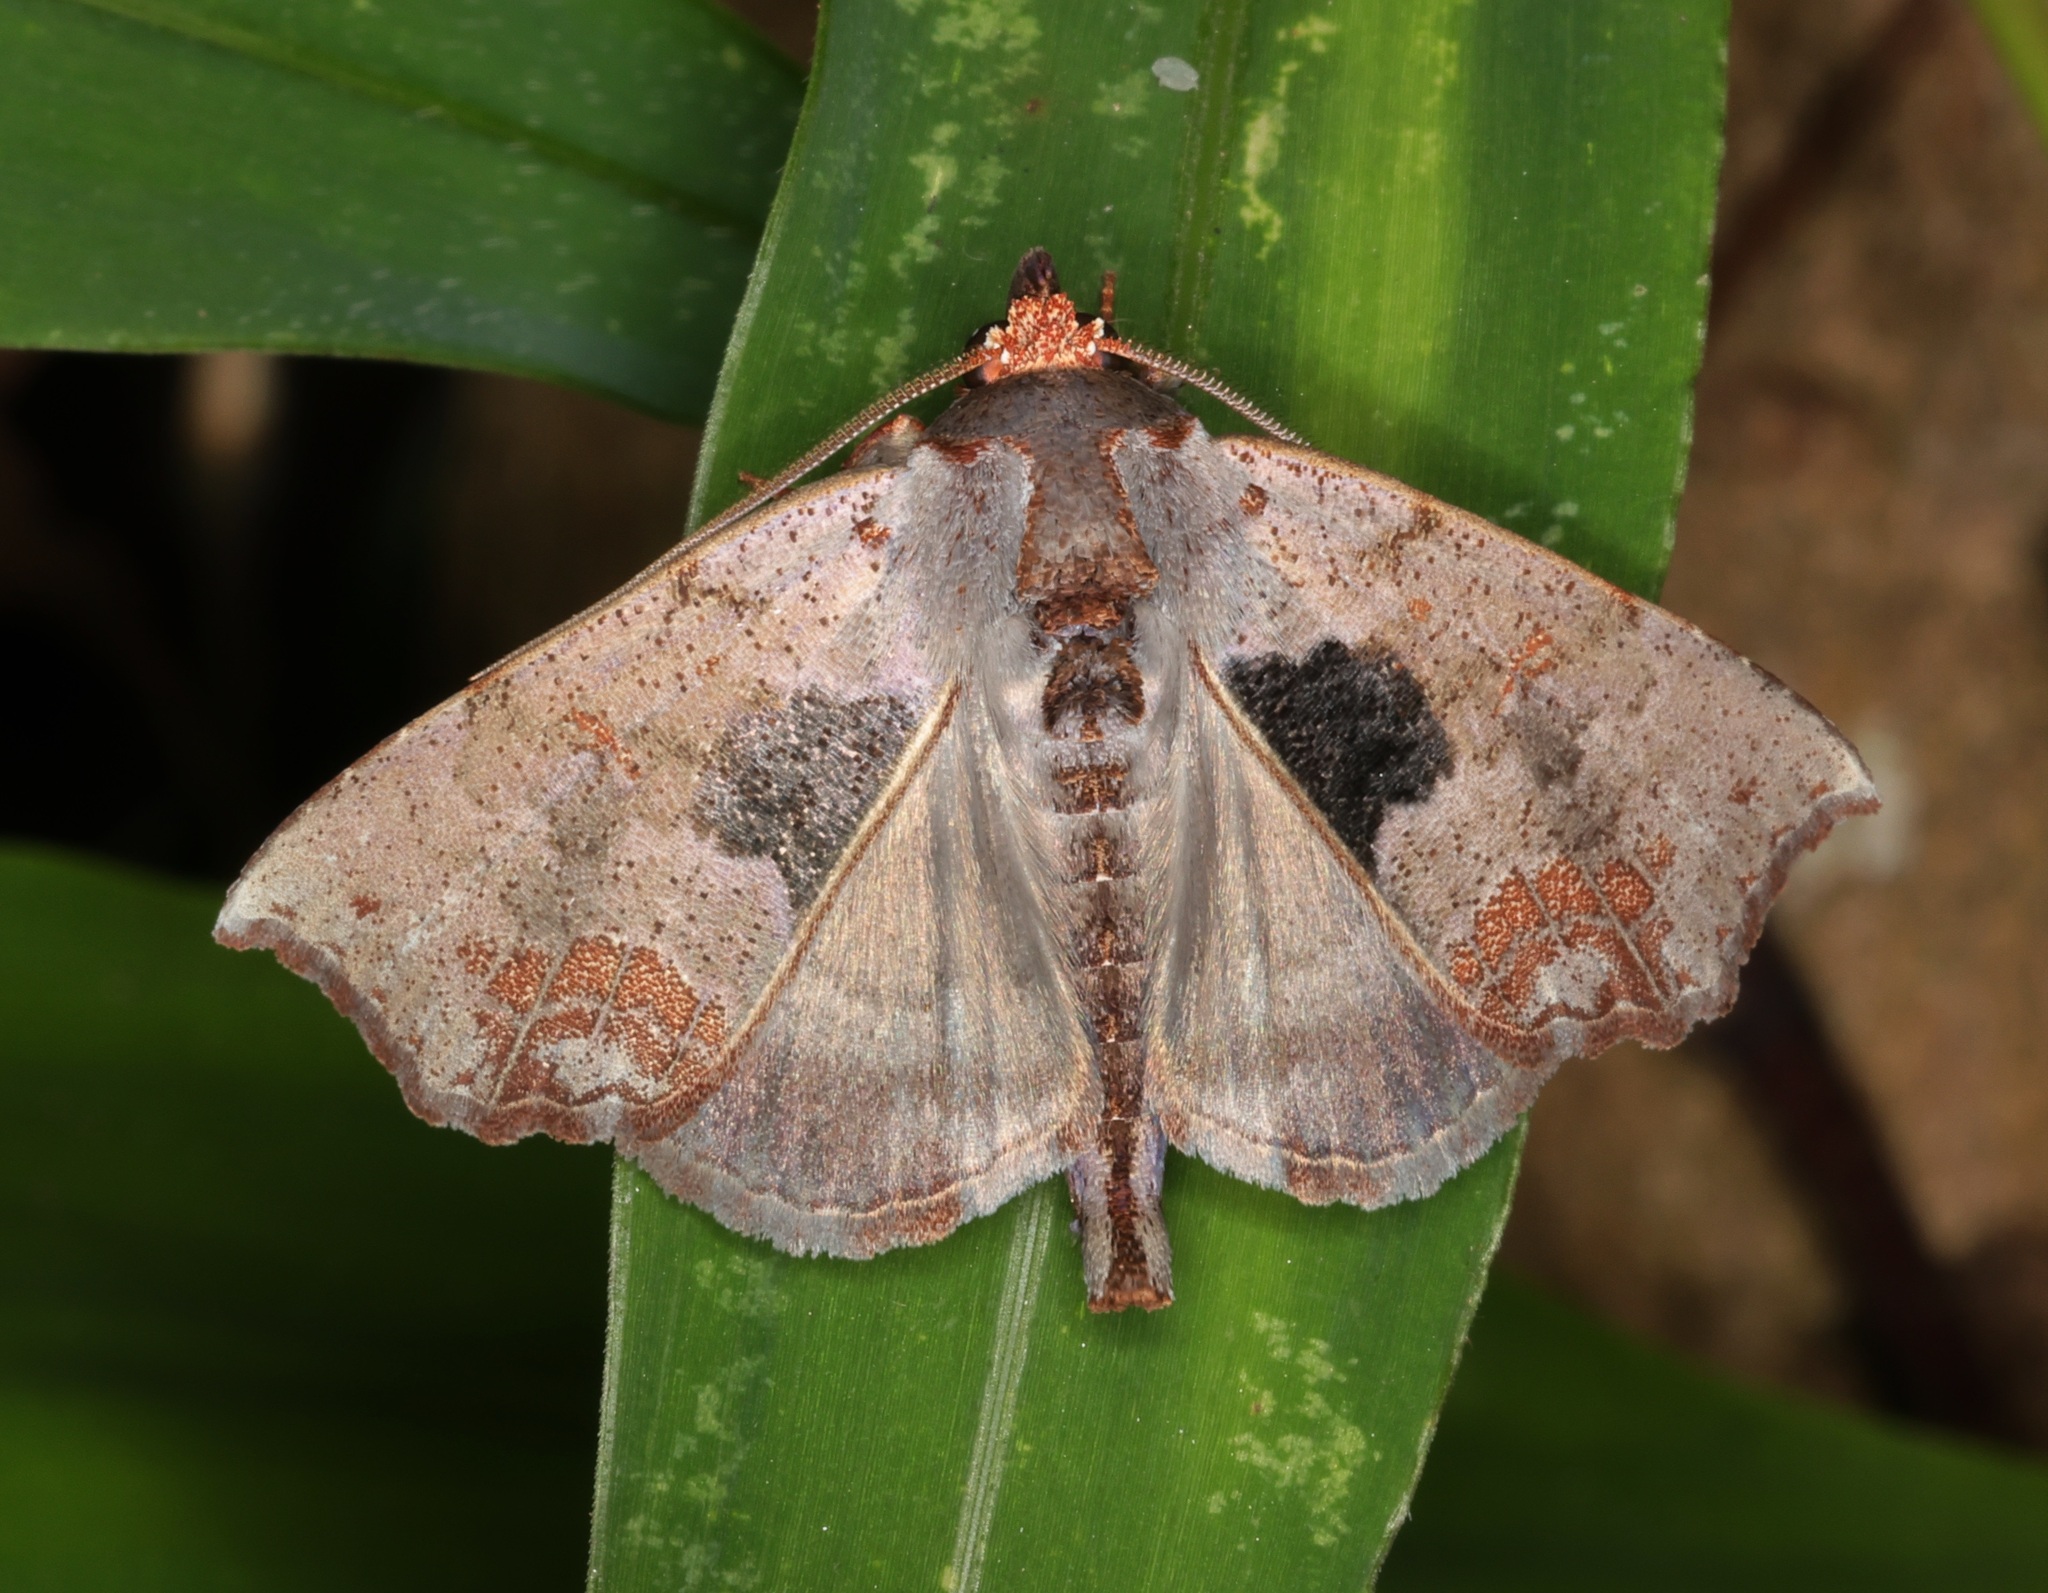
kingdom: Animalia
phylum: Arthropoda
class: Insecta
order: Lepidoptera
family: Erebidae
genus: Hyperlopha
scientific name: Hyperlopha compactilis
